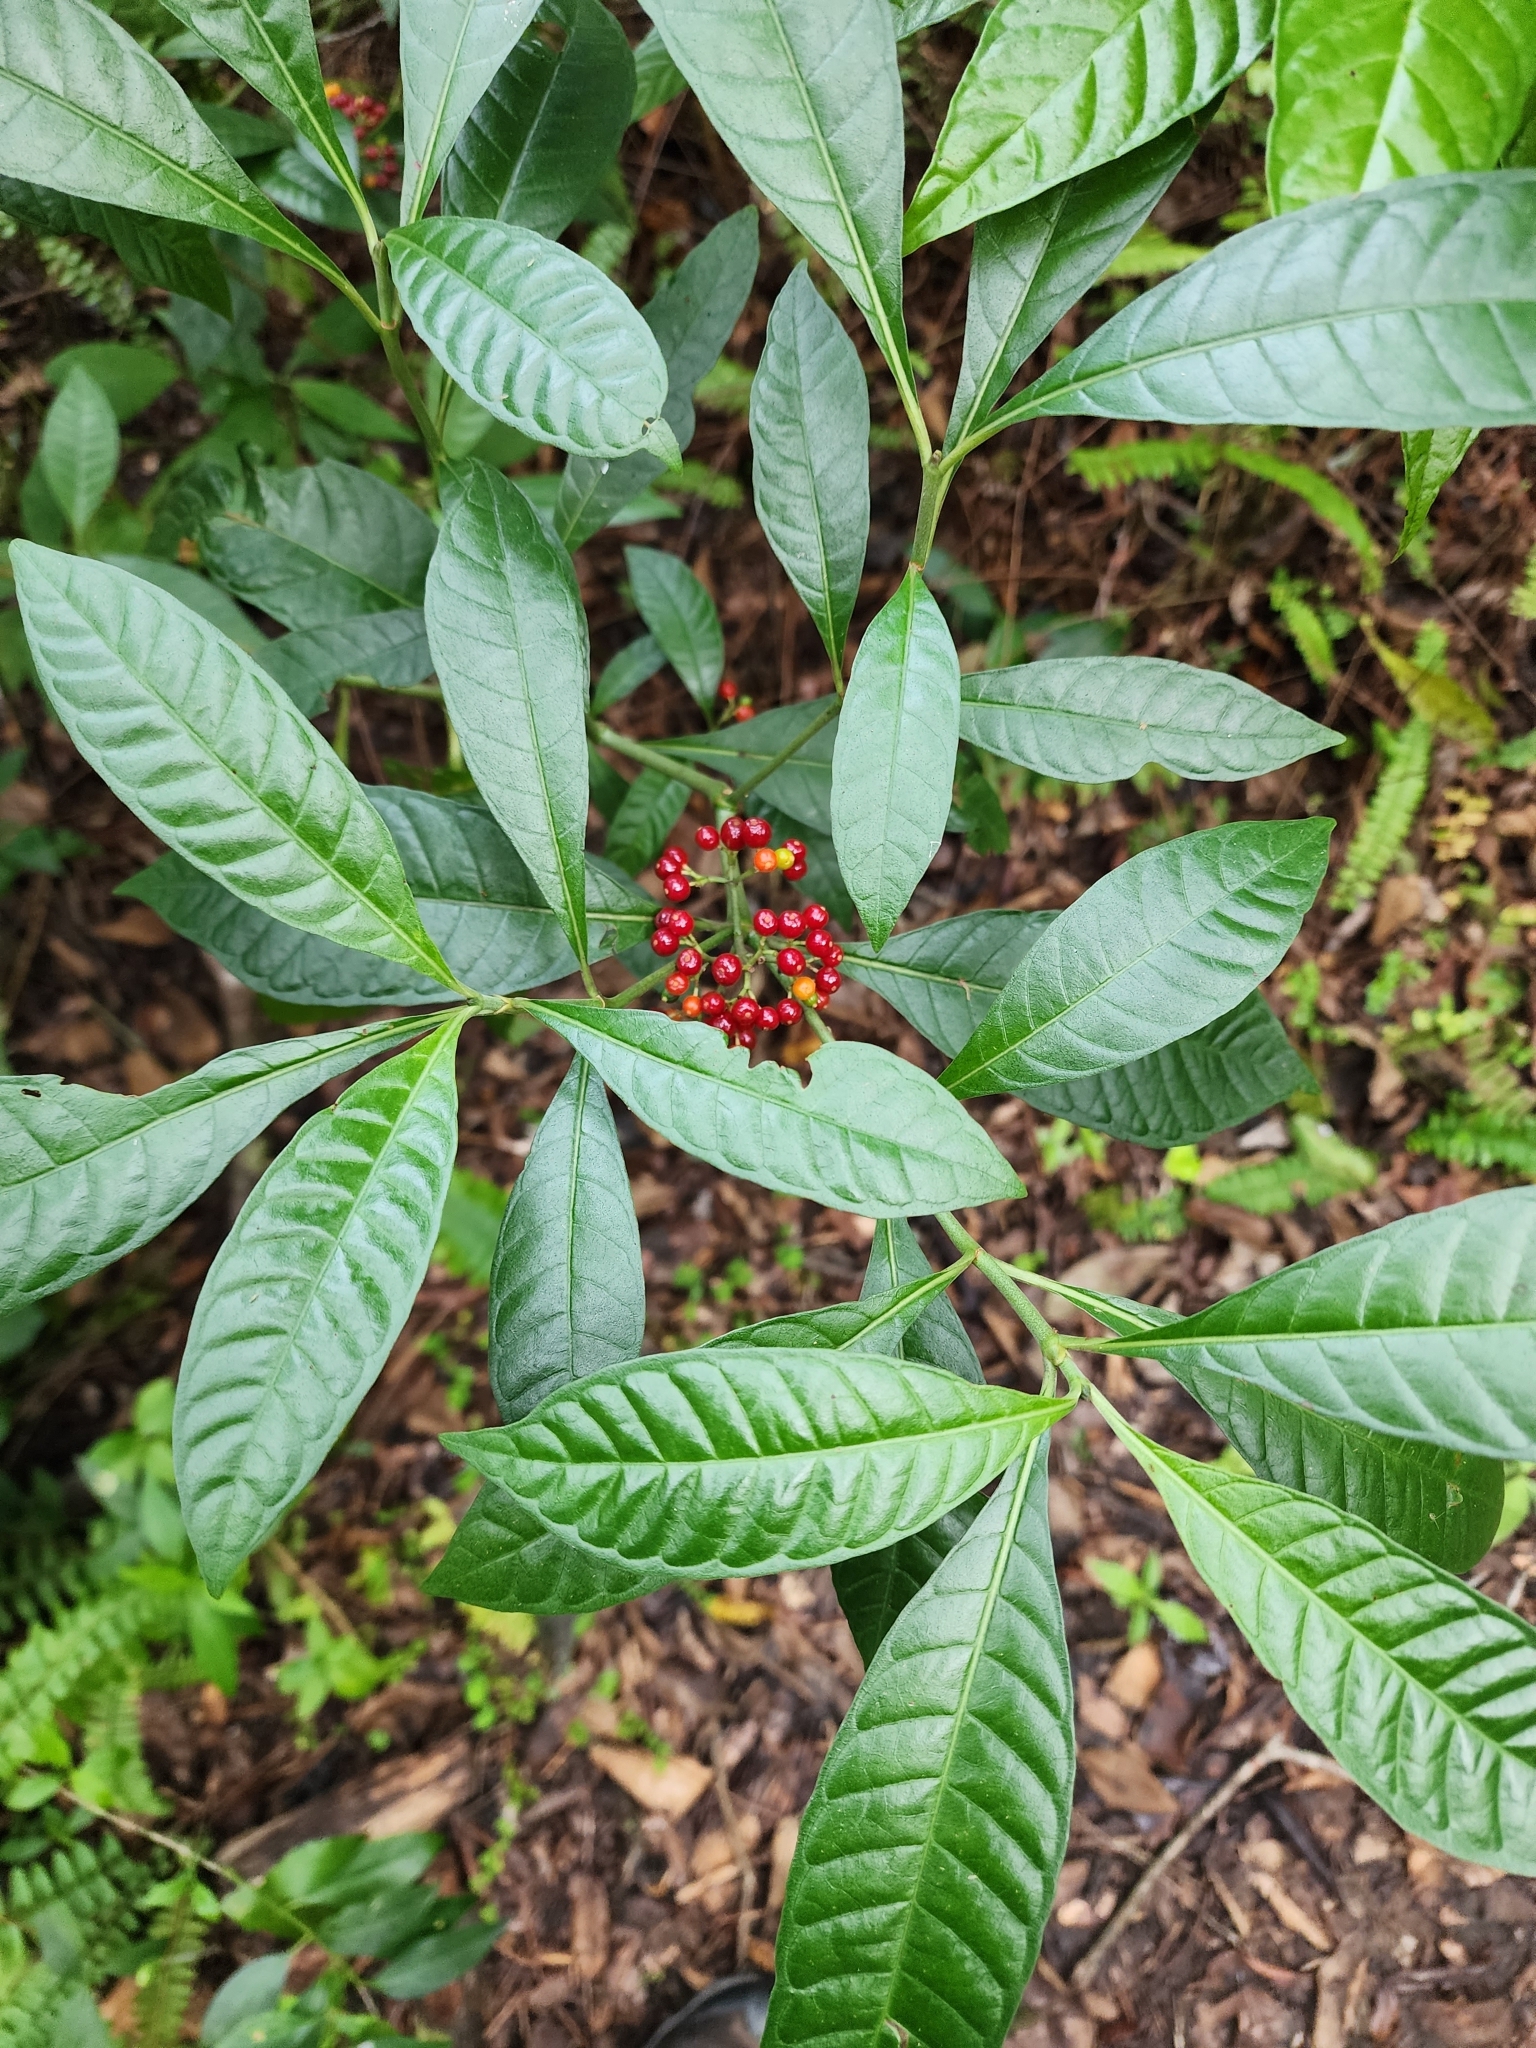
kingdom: Plantae
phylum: Tracheophyta
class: Magnoliopsida
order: Gentianales
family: Rubiaceae
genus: Psychotria
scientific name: Psychotria nervosa
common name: Bastard cankerberry
